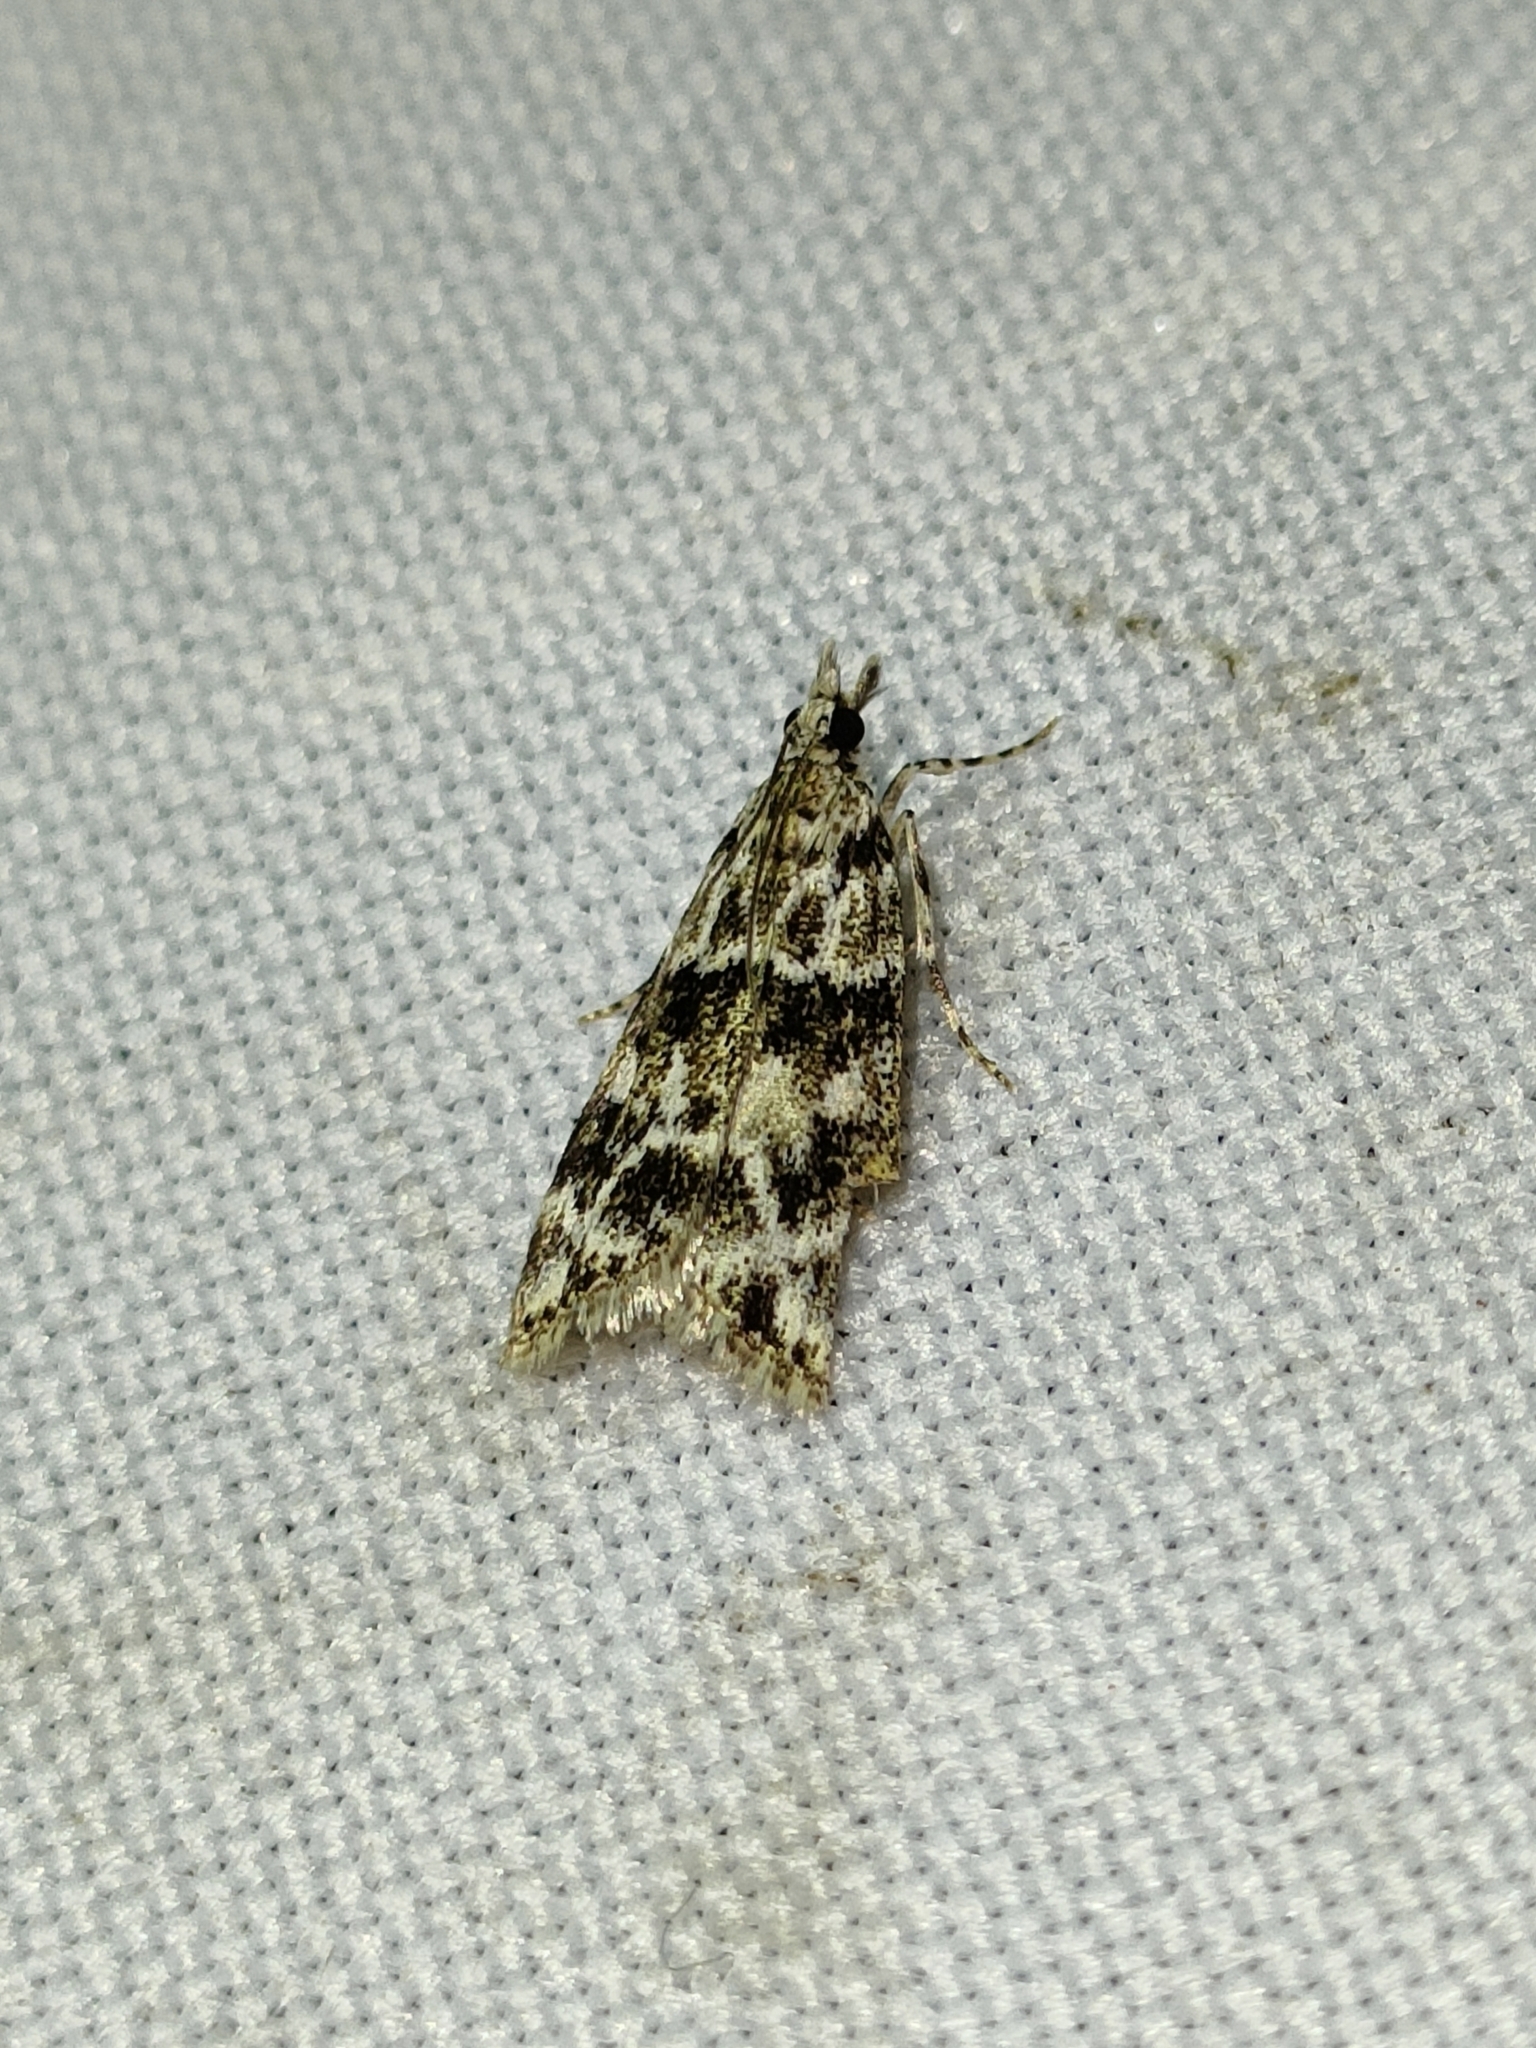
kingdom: Animalia
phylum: Arthropoda
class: Insecta
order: Lepidoptera
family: Crambidae
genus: Eudonia
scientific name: Eudonia delunella
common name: Pied grey
